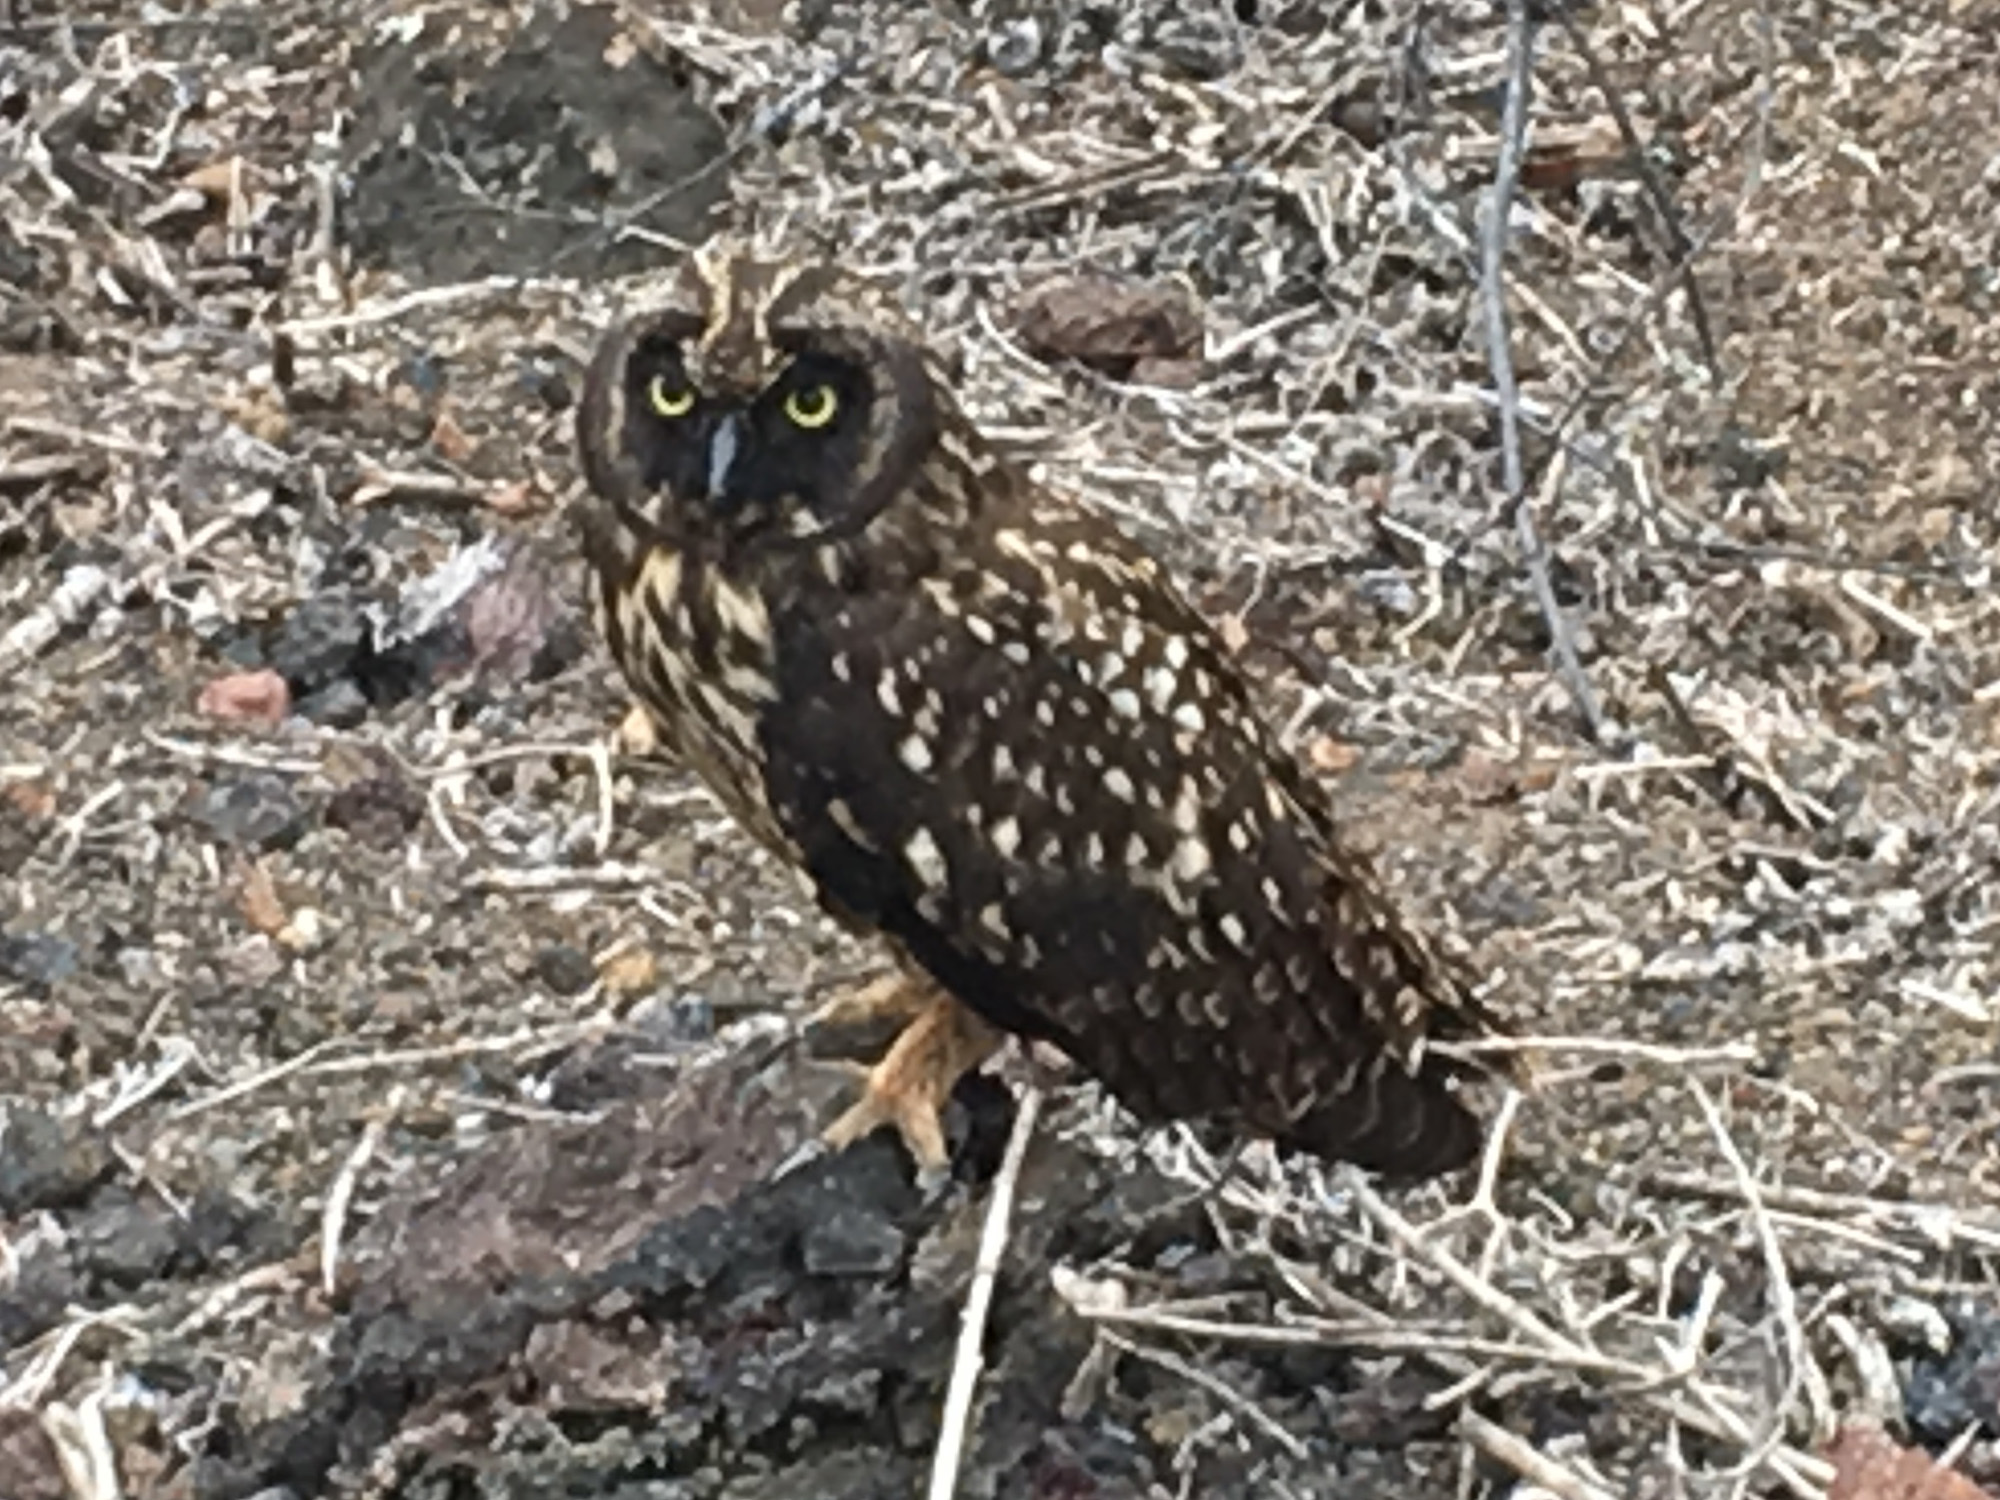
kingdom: Animalia
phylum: Chordata
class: Aves
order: Strigiformes
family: Strigidae
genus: Asio
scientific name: Asio flammeus
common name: Short-eared owl
